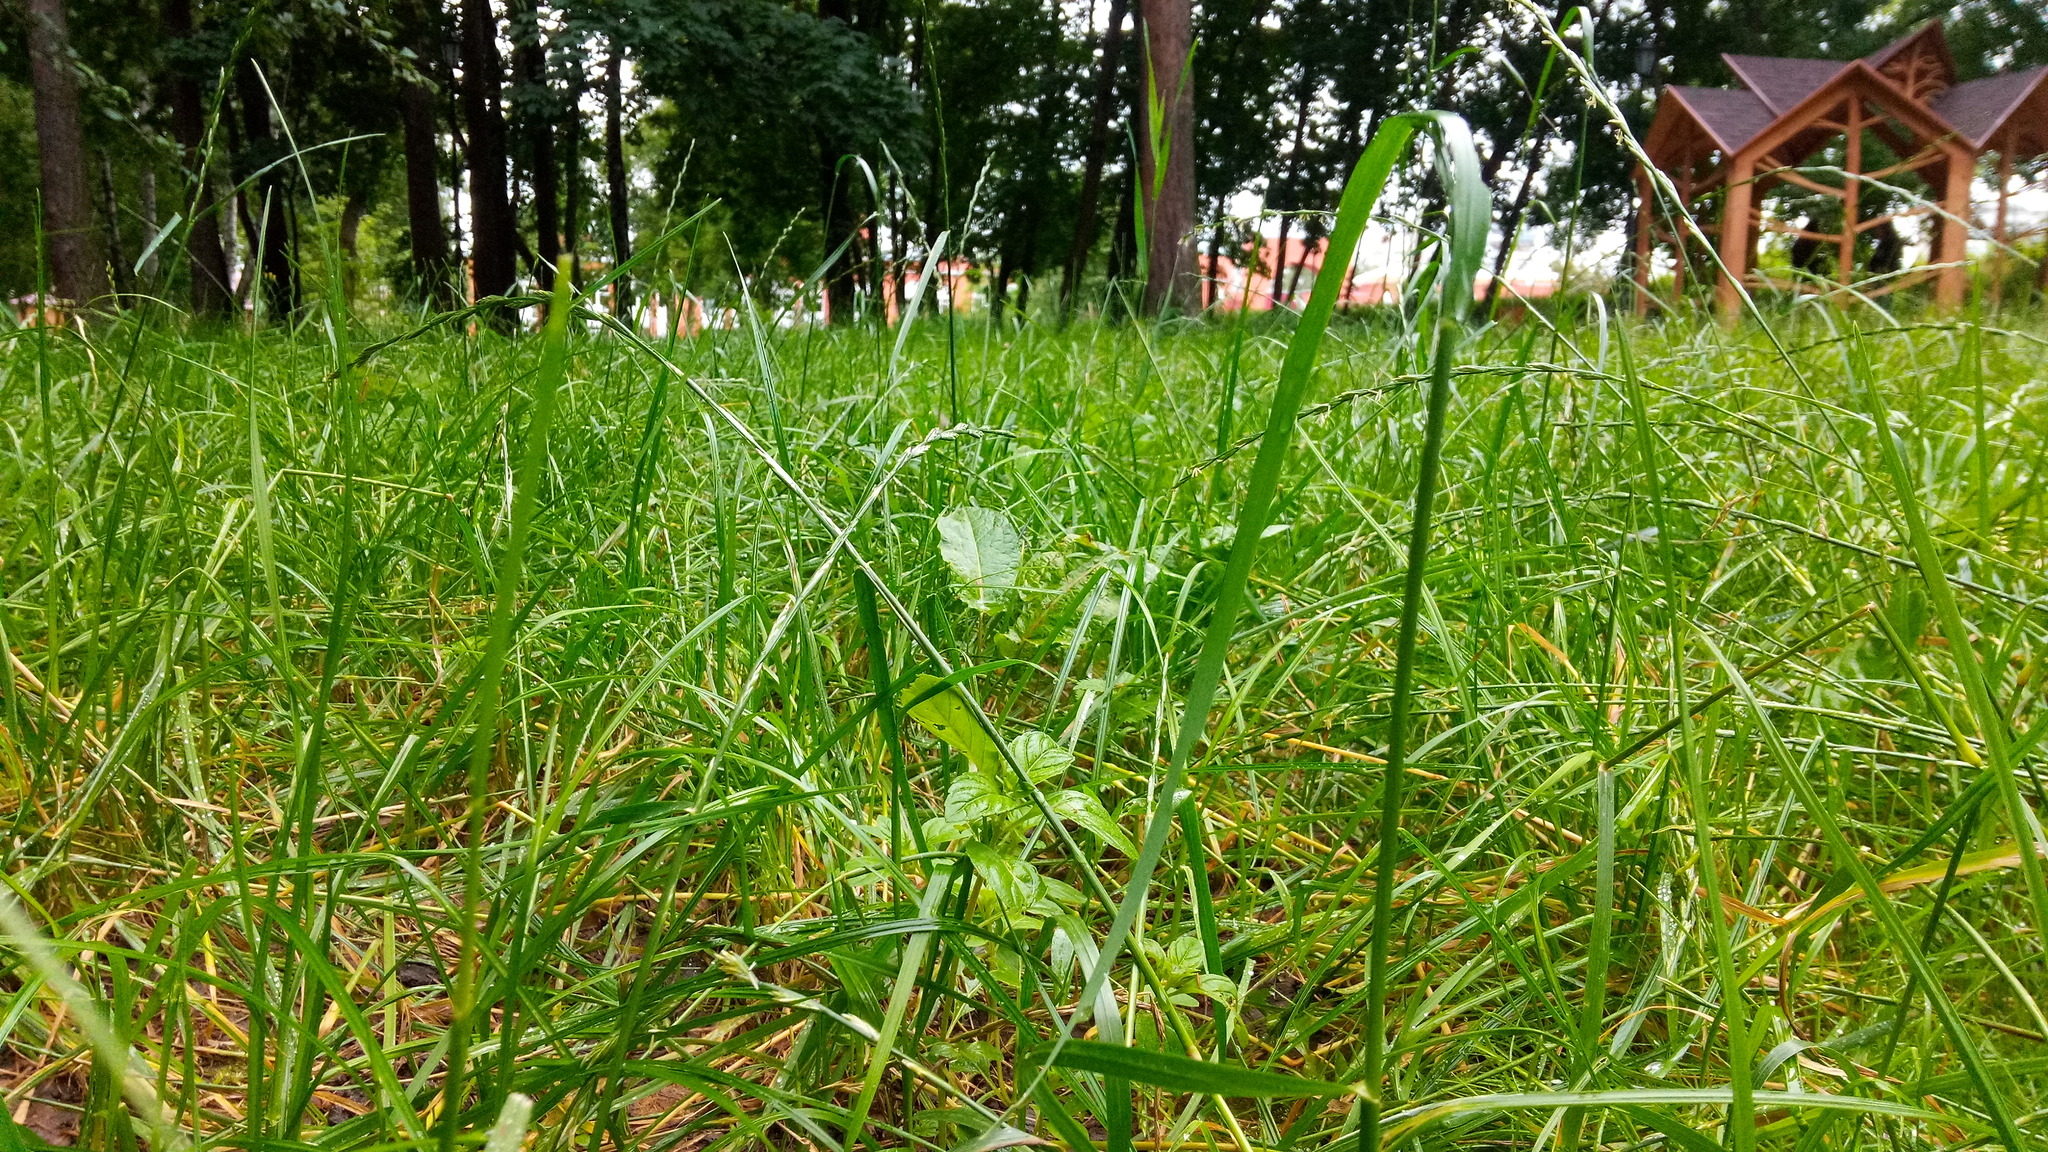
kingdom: Plantae
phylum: Tracheophyta
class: Magnoliopsida
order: Lamiales
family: Lamiaceae
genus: Mentha
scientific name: Mentha arvensis
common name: Corn mint
